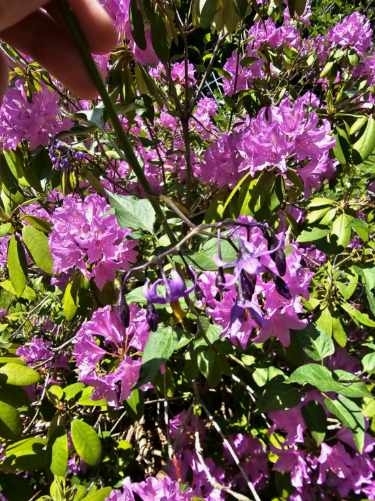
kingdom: Plantae
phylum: Tracheophyta
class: Magnoliopsida
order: Solanales
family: Solanaceae
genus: Solanum
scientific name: Solanum dulcamara
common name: Climbing nightshade
